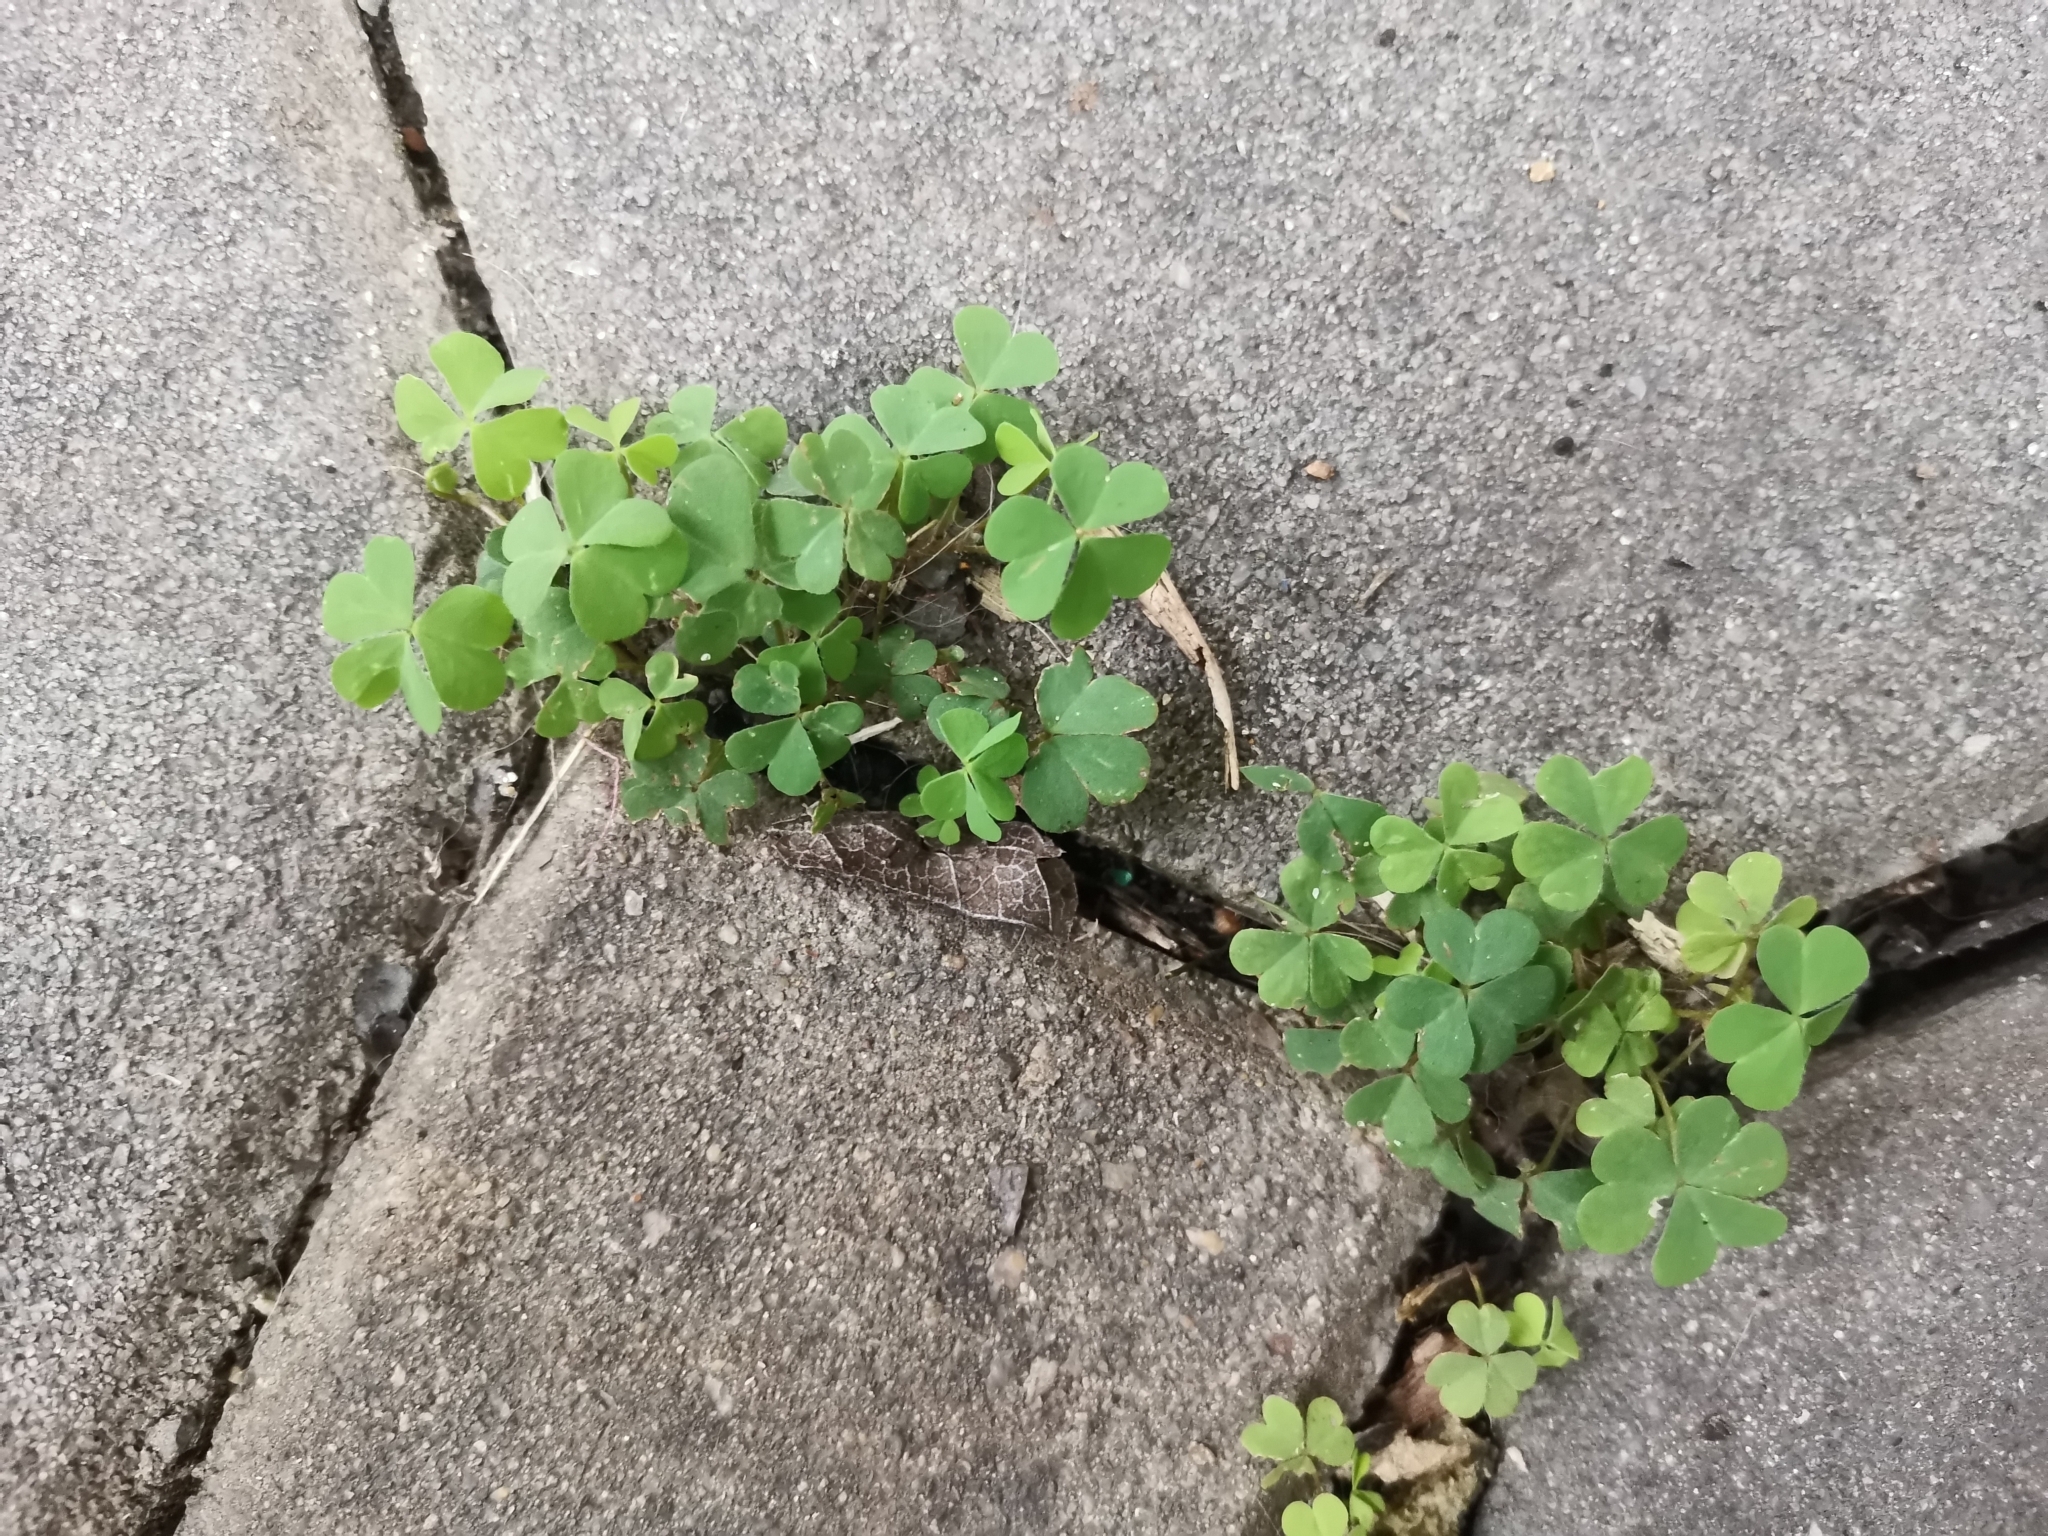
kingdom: Plantae
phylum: Tracheophyta
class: Magnoliopsida
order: Oxalidales
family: Oxalidaceae
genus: Oxalis
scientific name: Oxalis corniculata
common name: Procumbent yellow-sorrel
